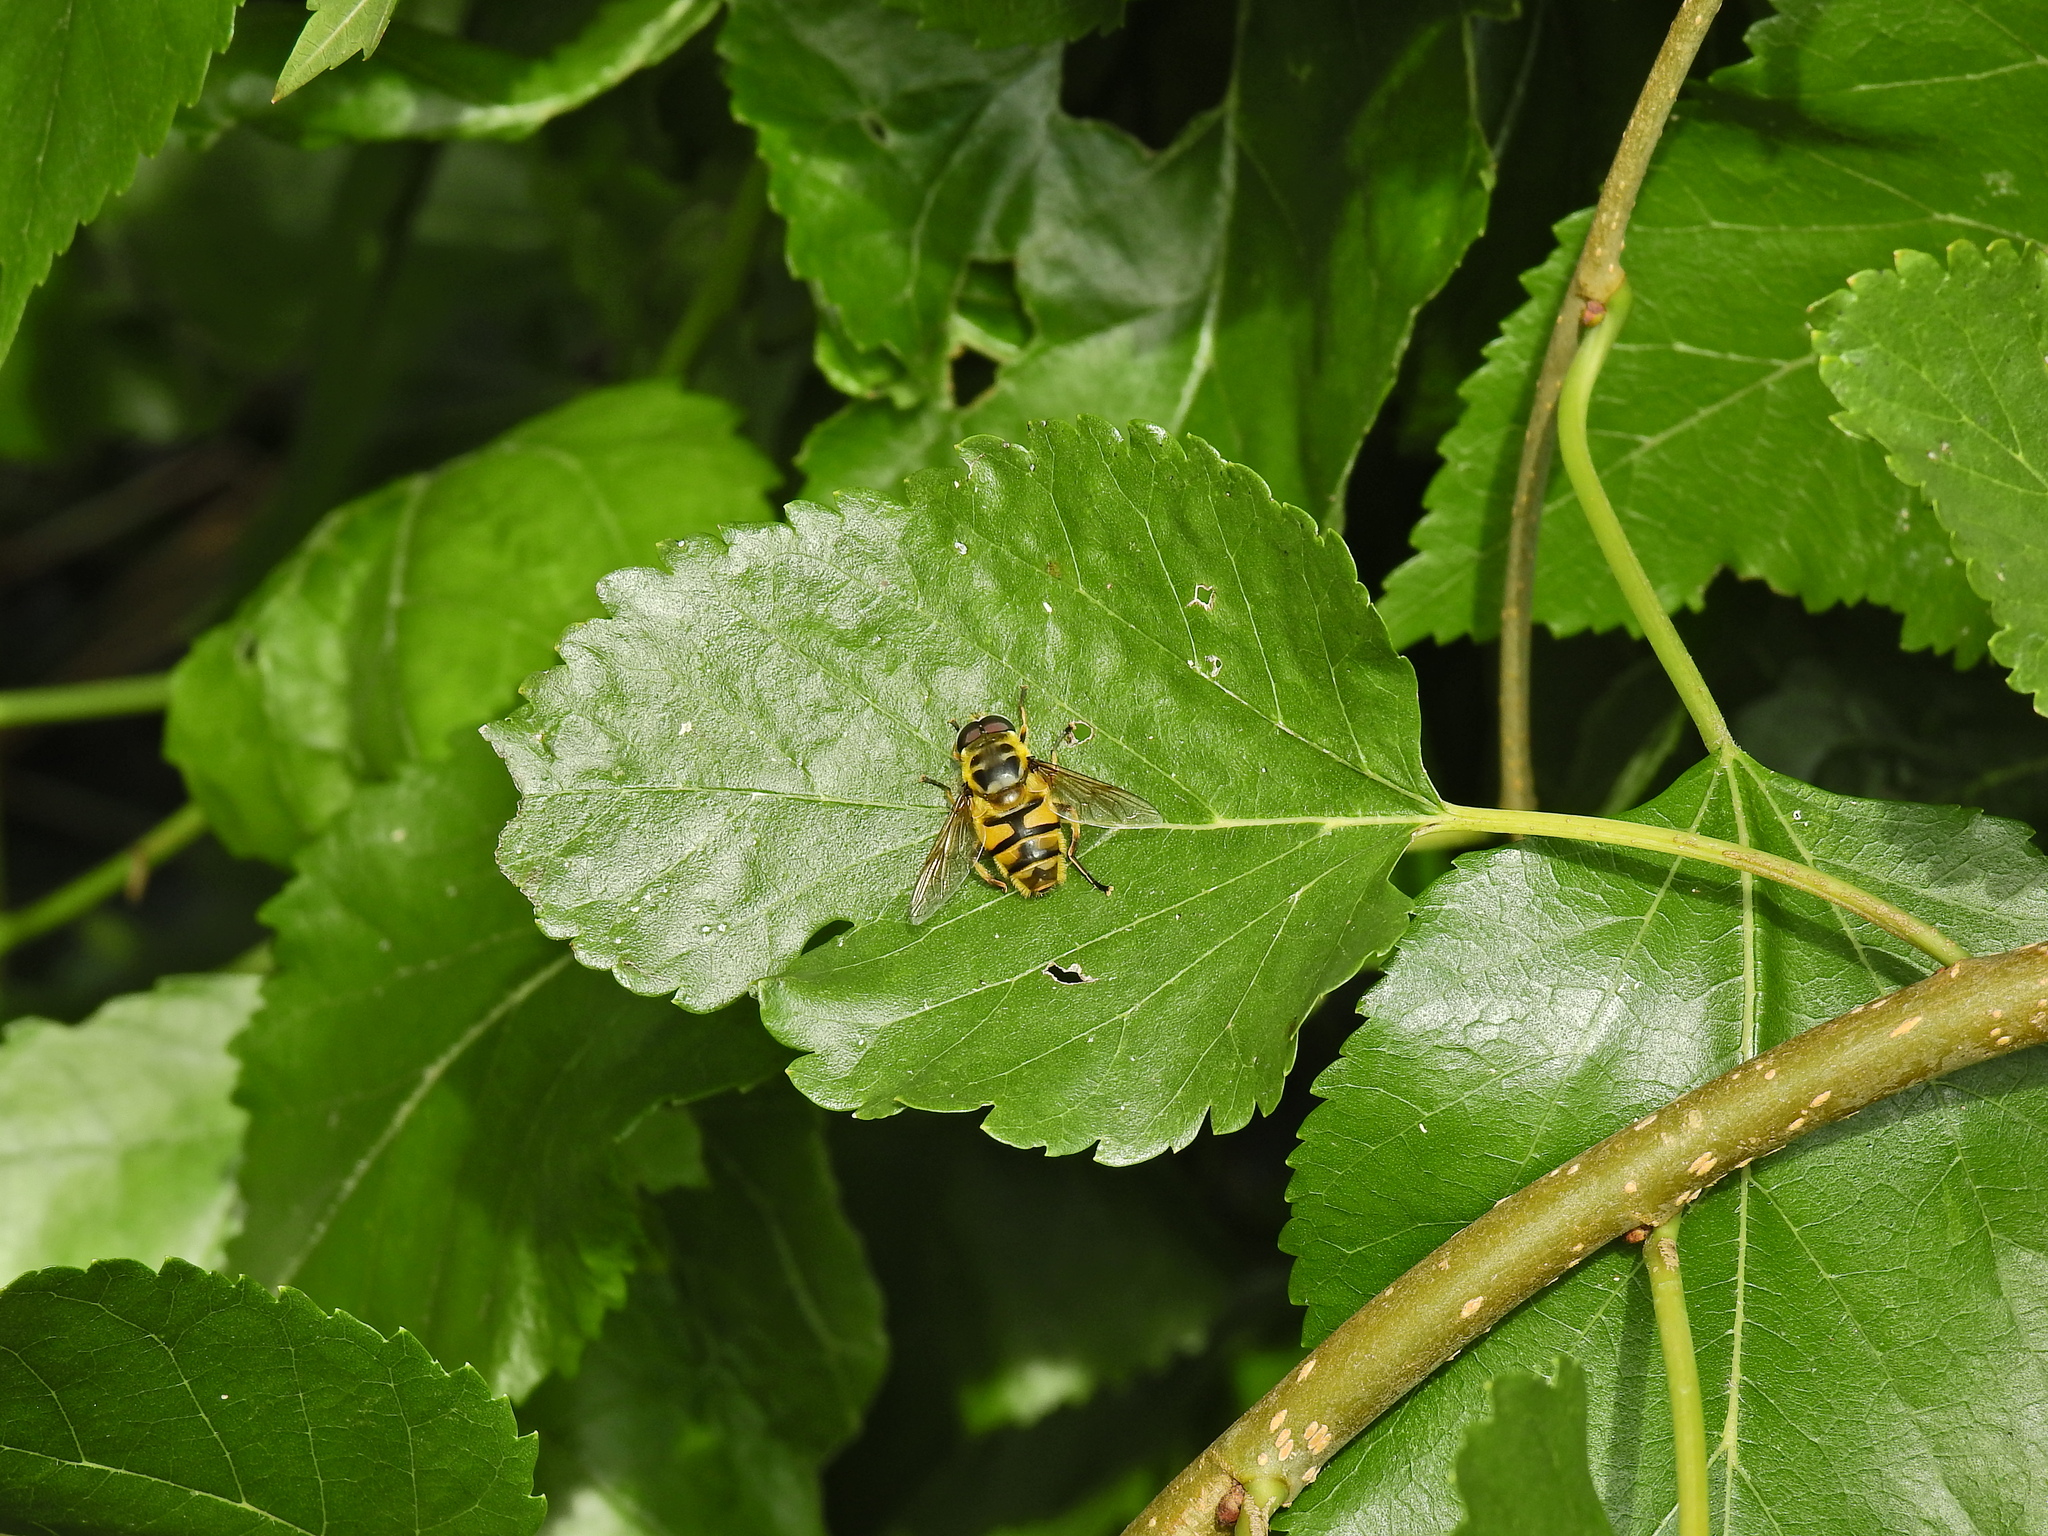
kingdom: Animalia
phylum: Arthropoda
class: Insecta
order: Diptera
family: Syrphidae
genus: Myathropa
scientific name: Myathropa florea
